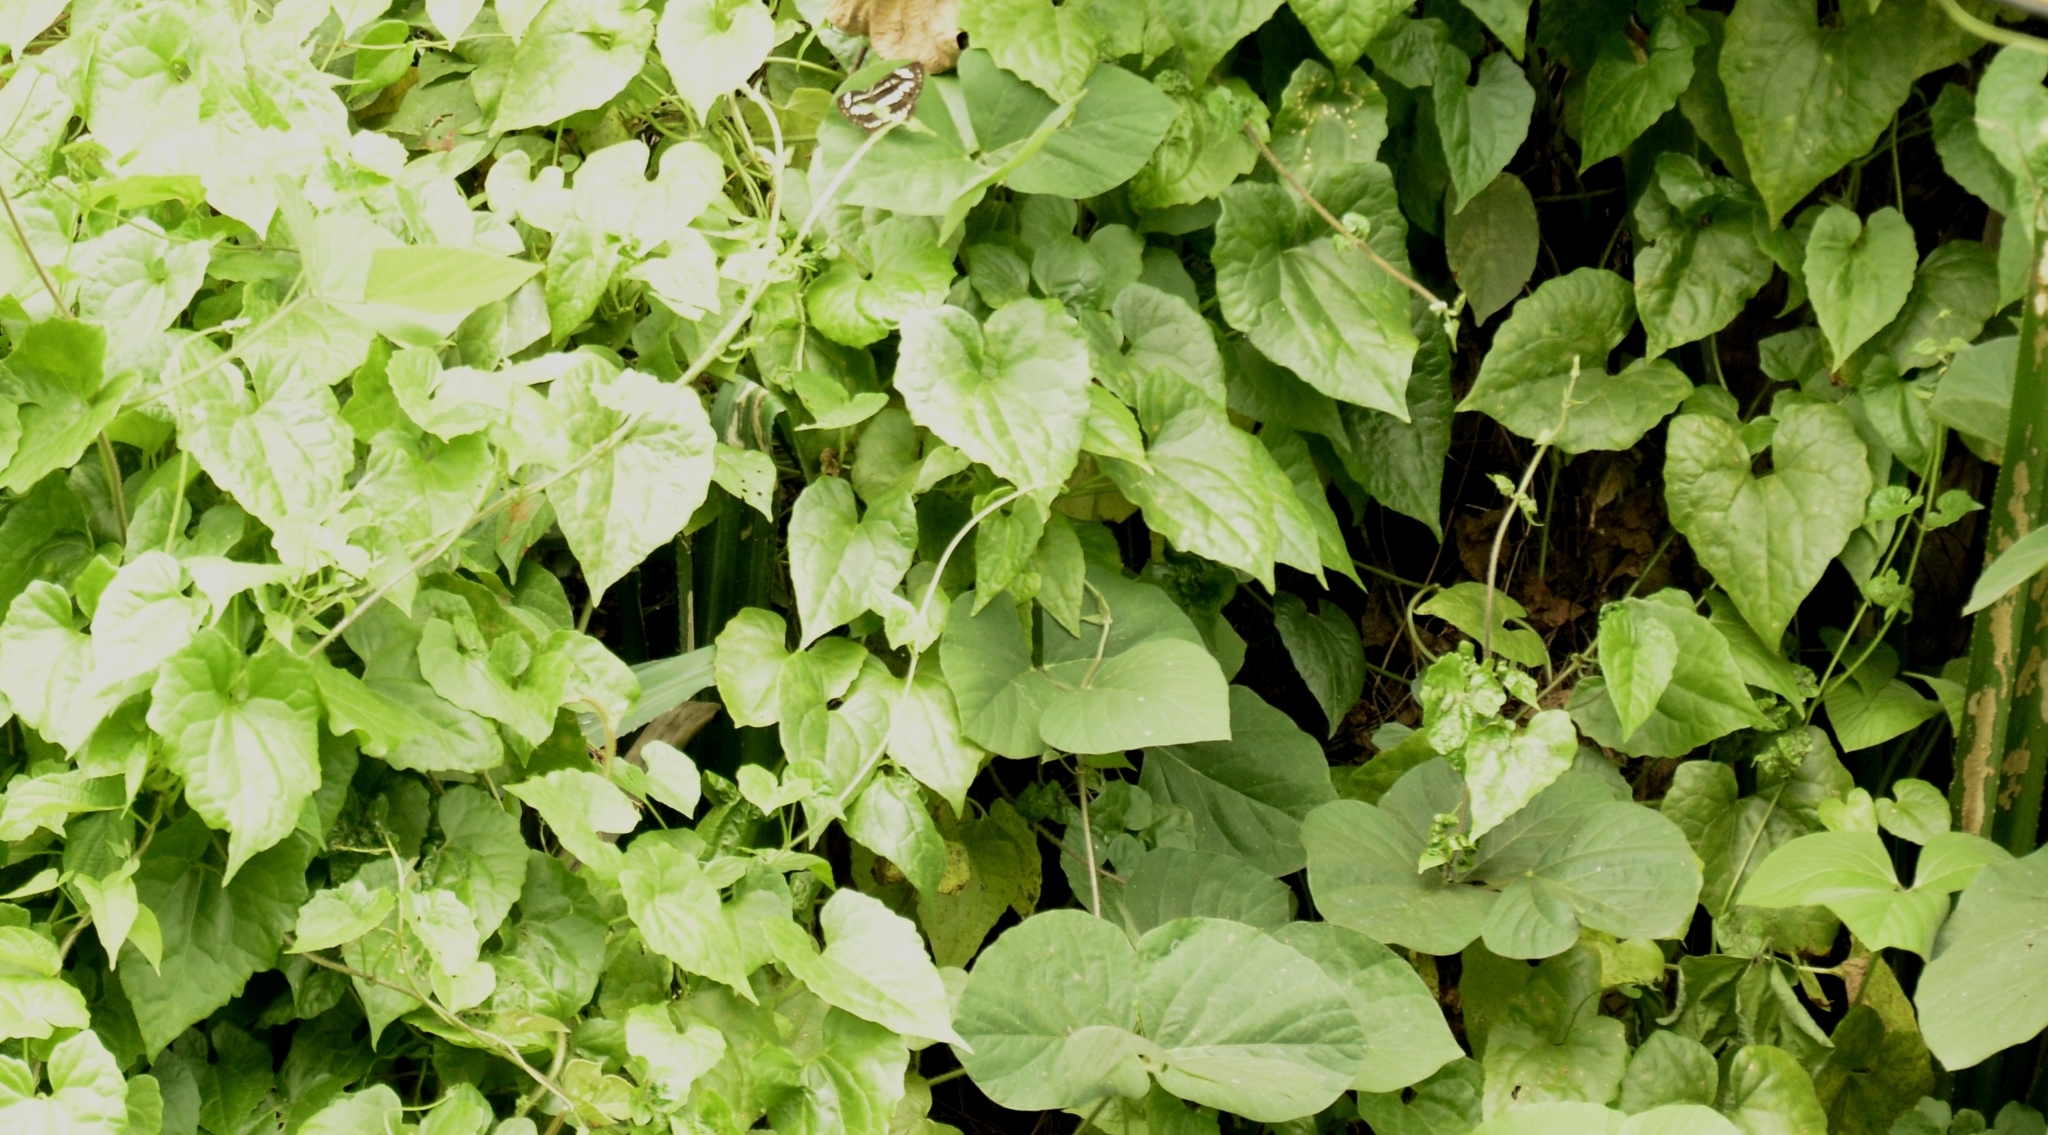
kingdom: Plantae
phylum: Tracheophyta
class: Magnoliopsida
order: Asterales
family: Asteraceae
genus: Mikania
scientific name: Mikania micrantha
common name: Mile-a-minute
